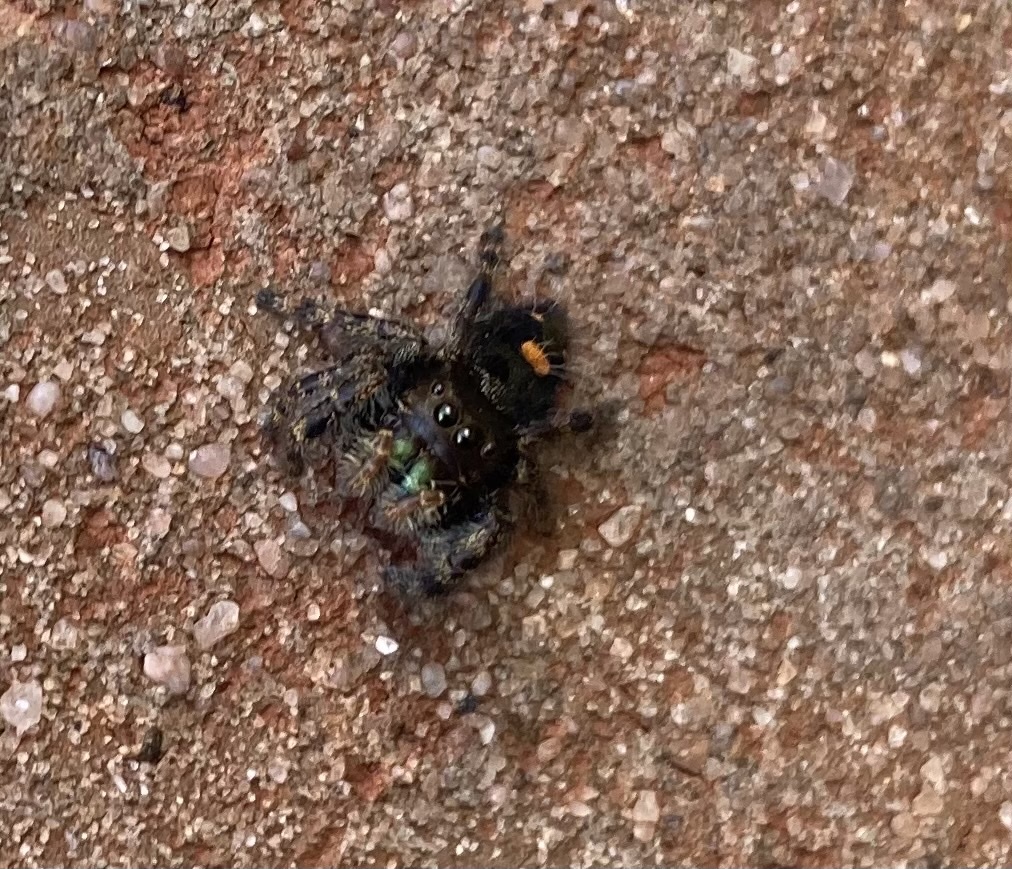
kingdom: Animalia
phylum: Arthropoda
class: Arachnida
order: Araneae
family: Salticidae
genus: Phidippus
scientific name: Phidippus audax
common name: Bold jumper
